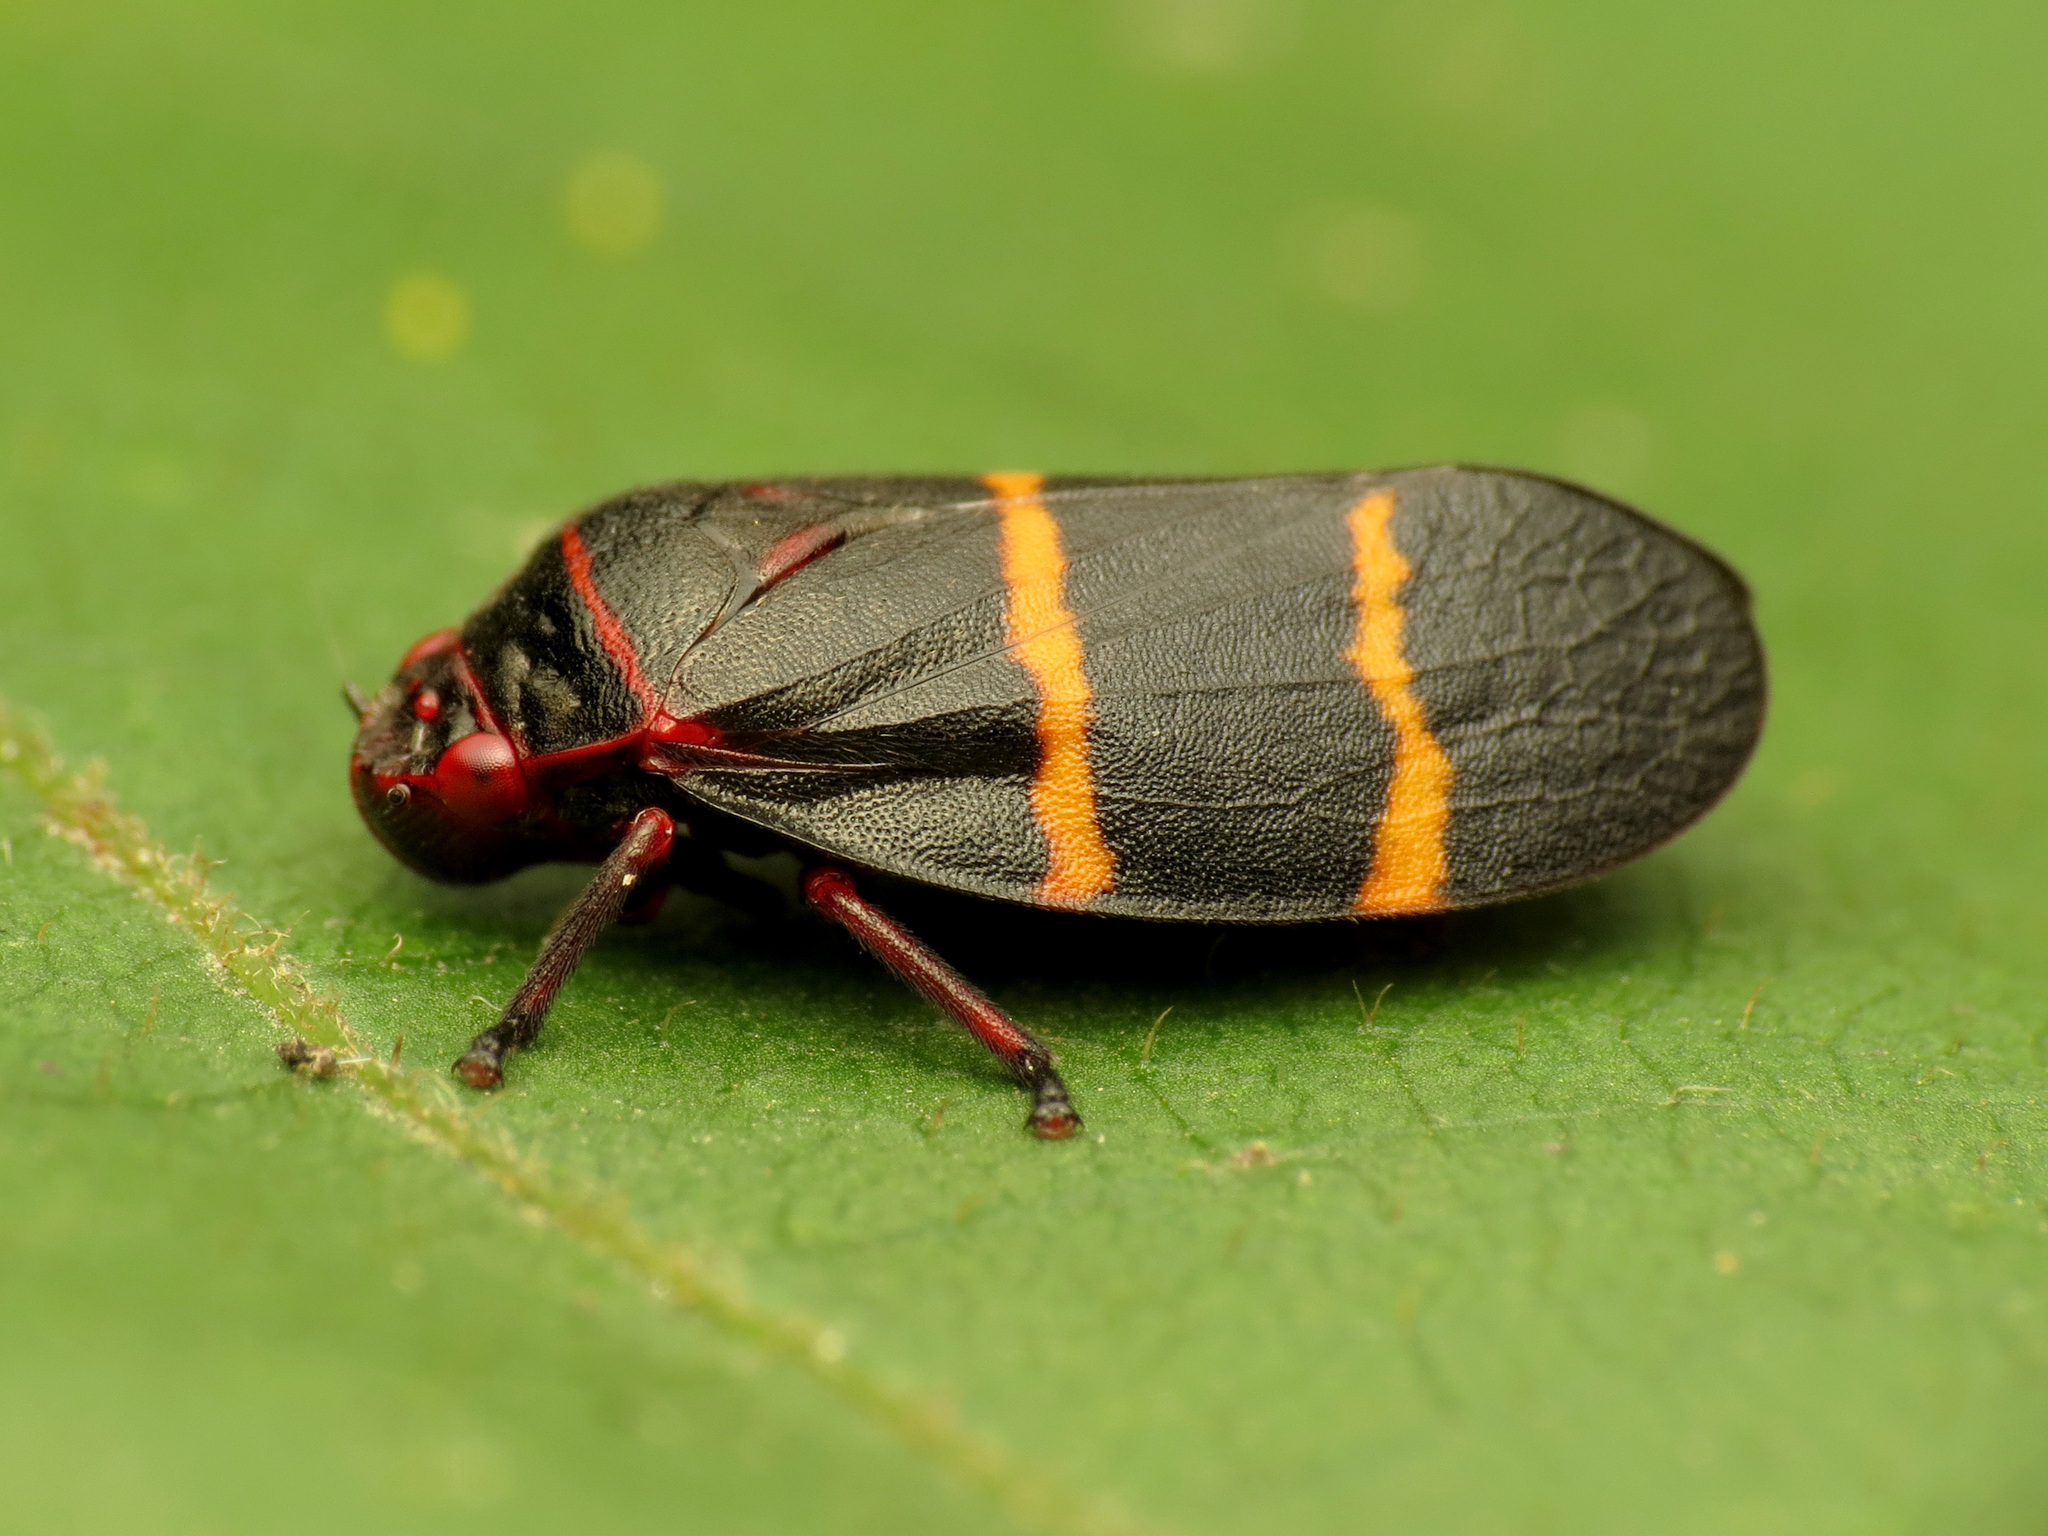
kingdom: Animalia
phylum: Arthropoda
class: Insecta
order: Hemiptera
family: Cercopidae
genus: Prosapia
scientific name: Prosapia bicincta
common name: Twolined spittlebug
